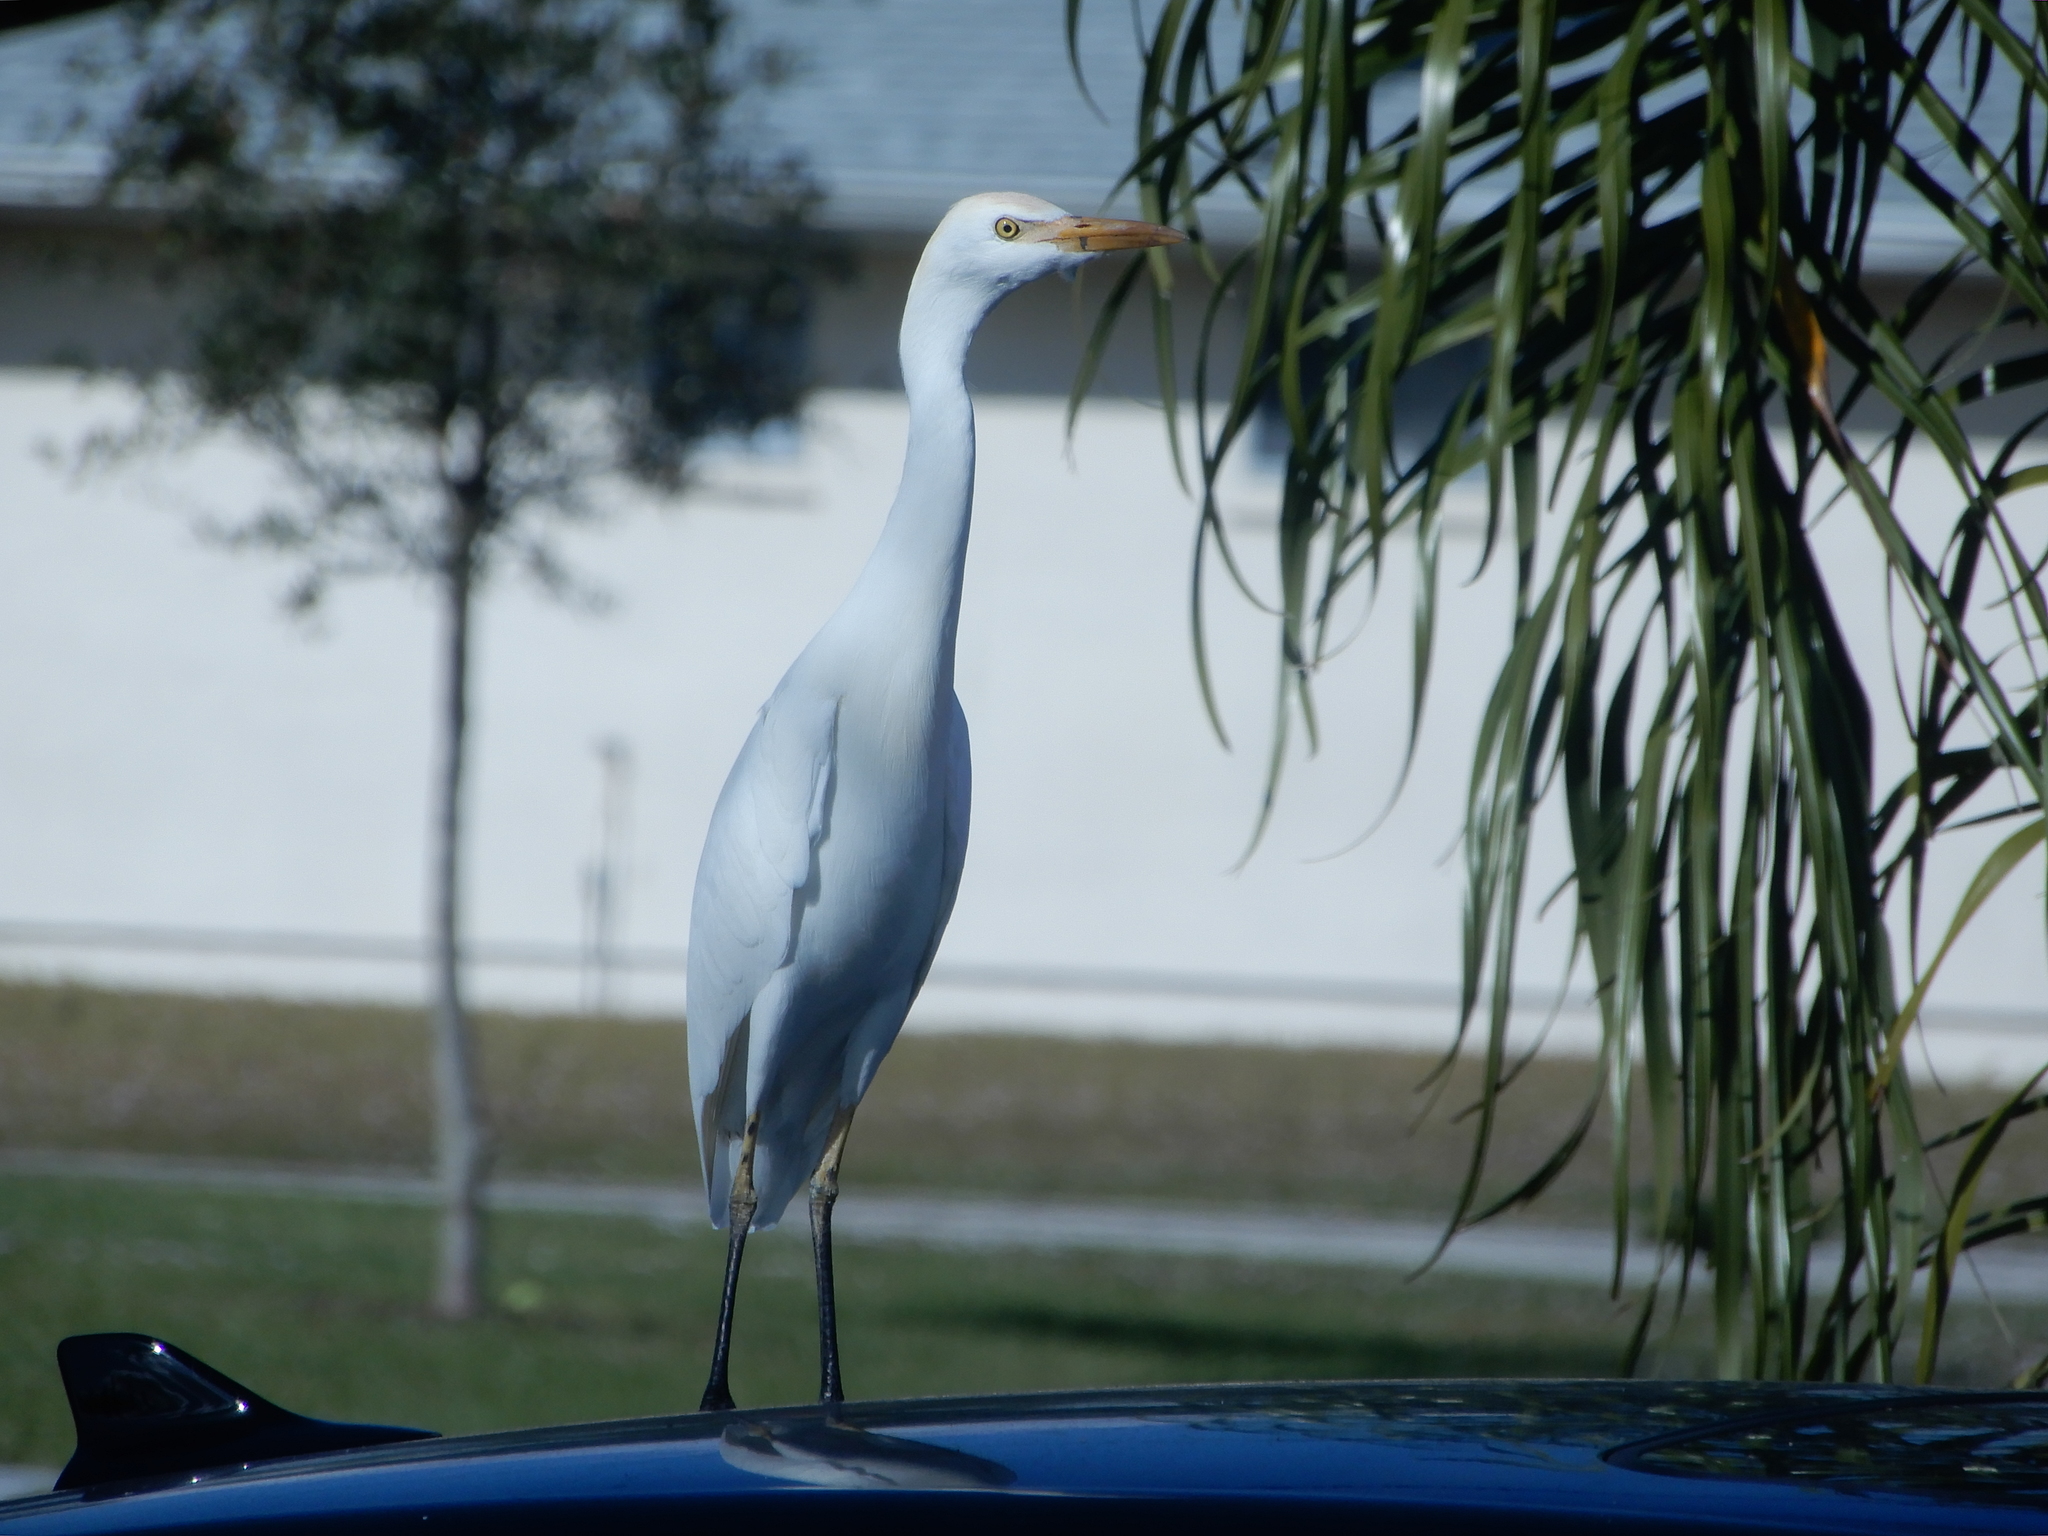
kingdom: Animalia
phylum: Chordata
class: Aves
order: Pelecaniformes
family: Ardeidae
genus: Bubulcus
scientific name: Bubulcus ibis
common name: Cattle egret
